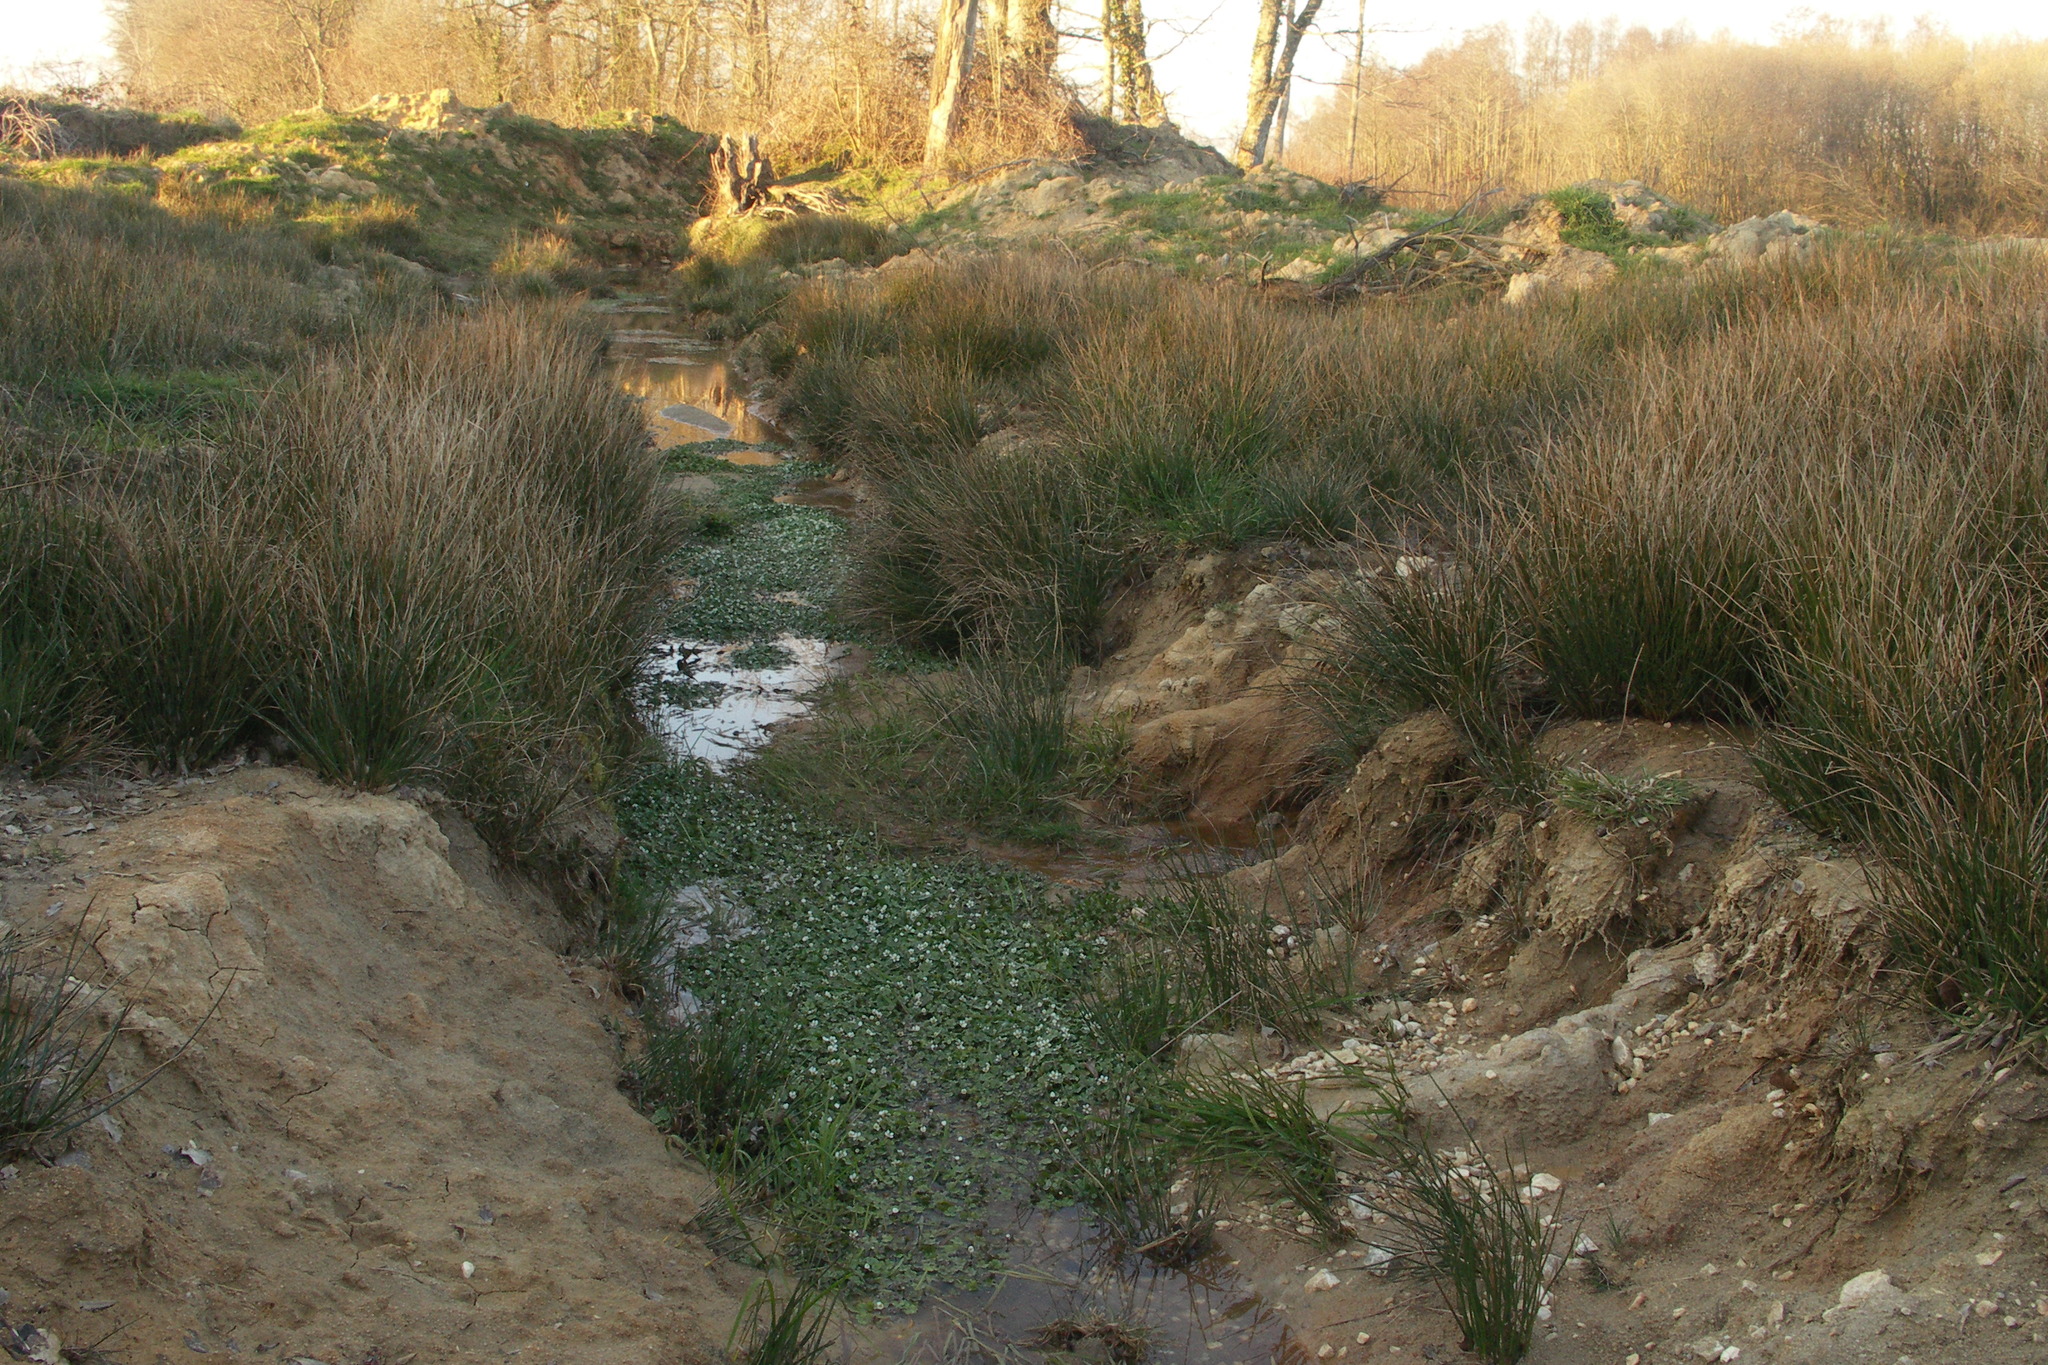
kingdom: Plantae
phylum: Tracheophyta
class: Magnoliopsida
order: Ranunculales
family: Ranunculaceae
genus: Ranunculus
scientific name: Ranunculus omiophyllus
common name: Round-leaved crowfoot
